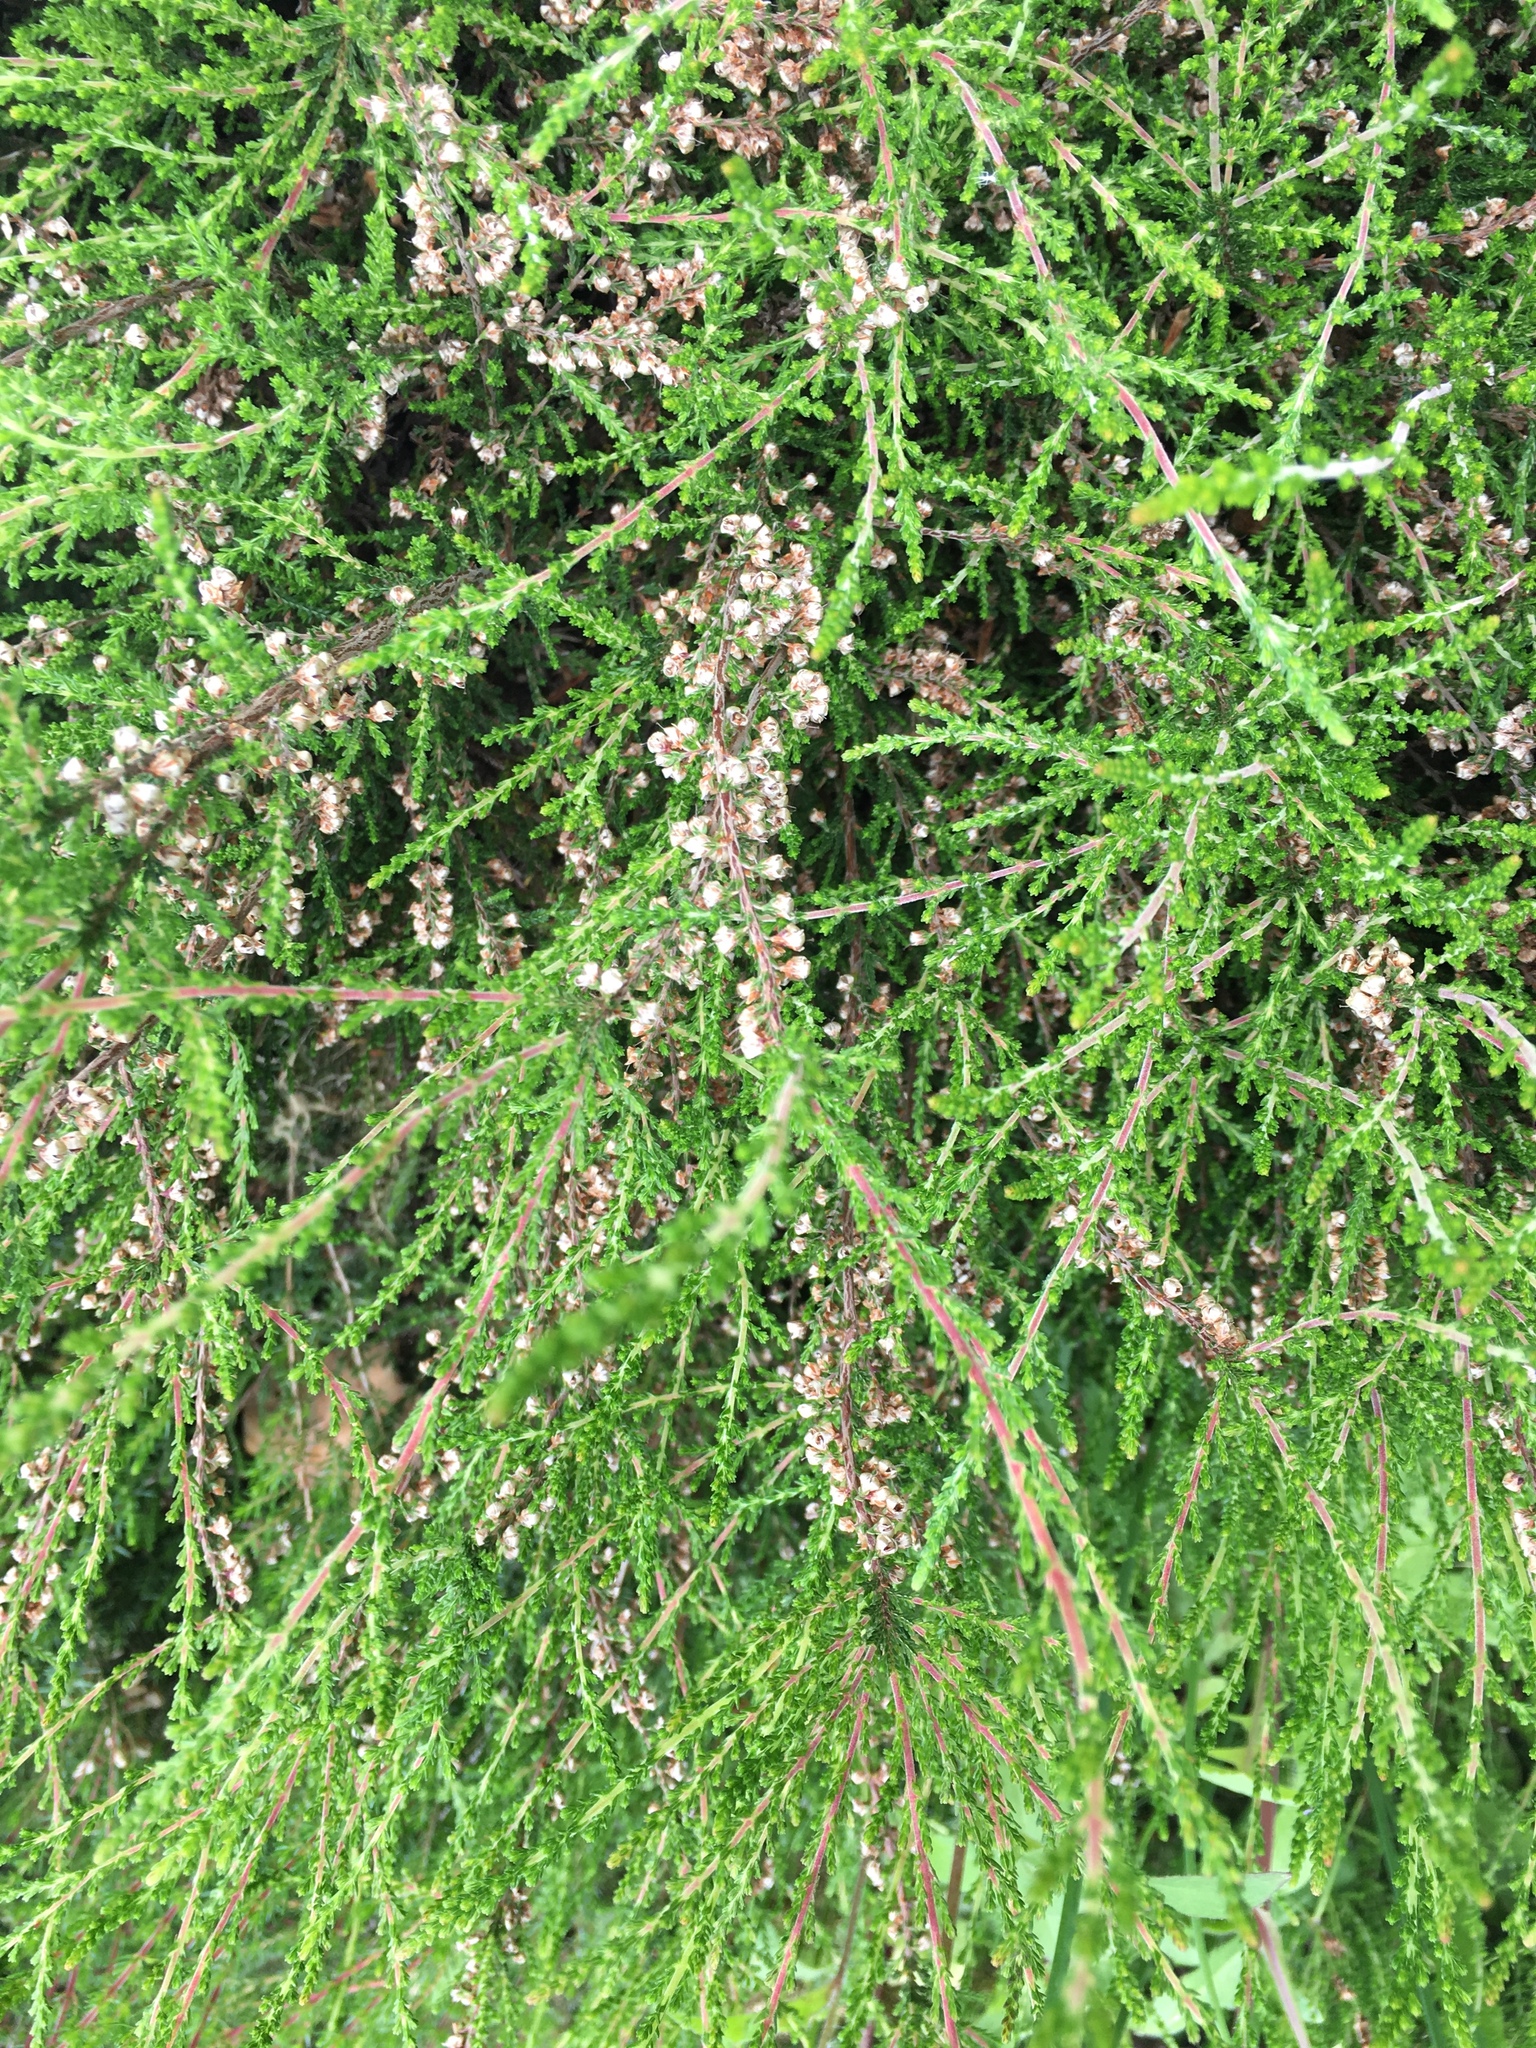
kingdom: Plantae
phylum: Tracheophyta
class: Magnoliopsida
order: Ericales
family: Ericaceae
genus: Calluna
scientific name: Calluna vulgaris
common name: Heather
